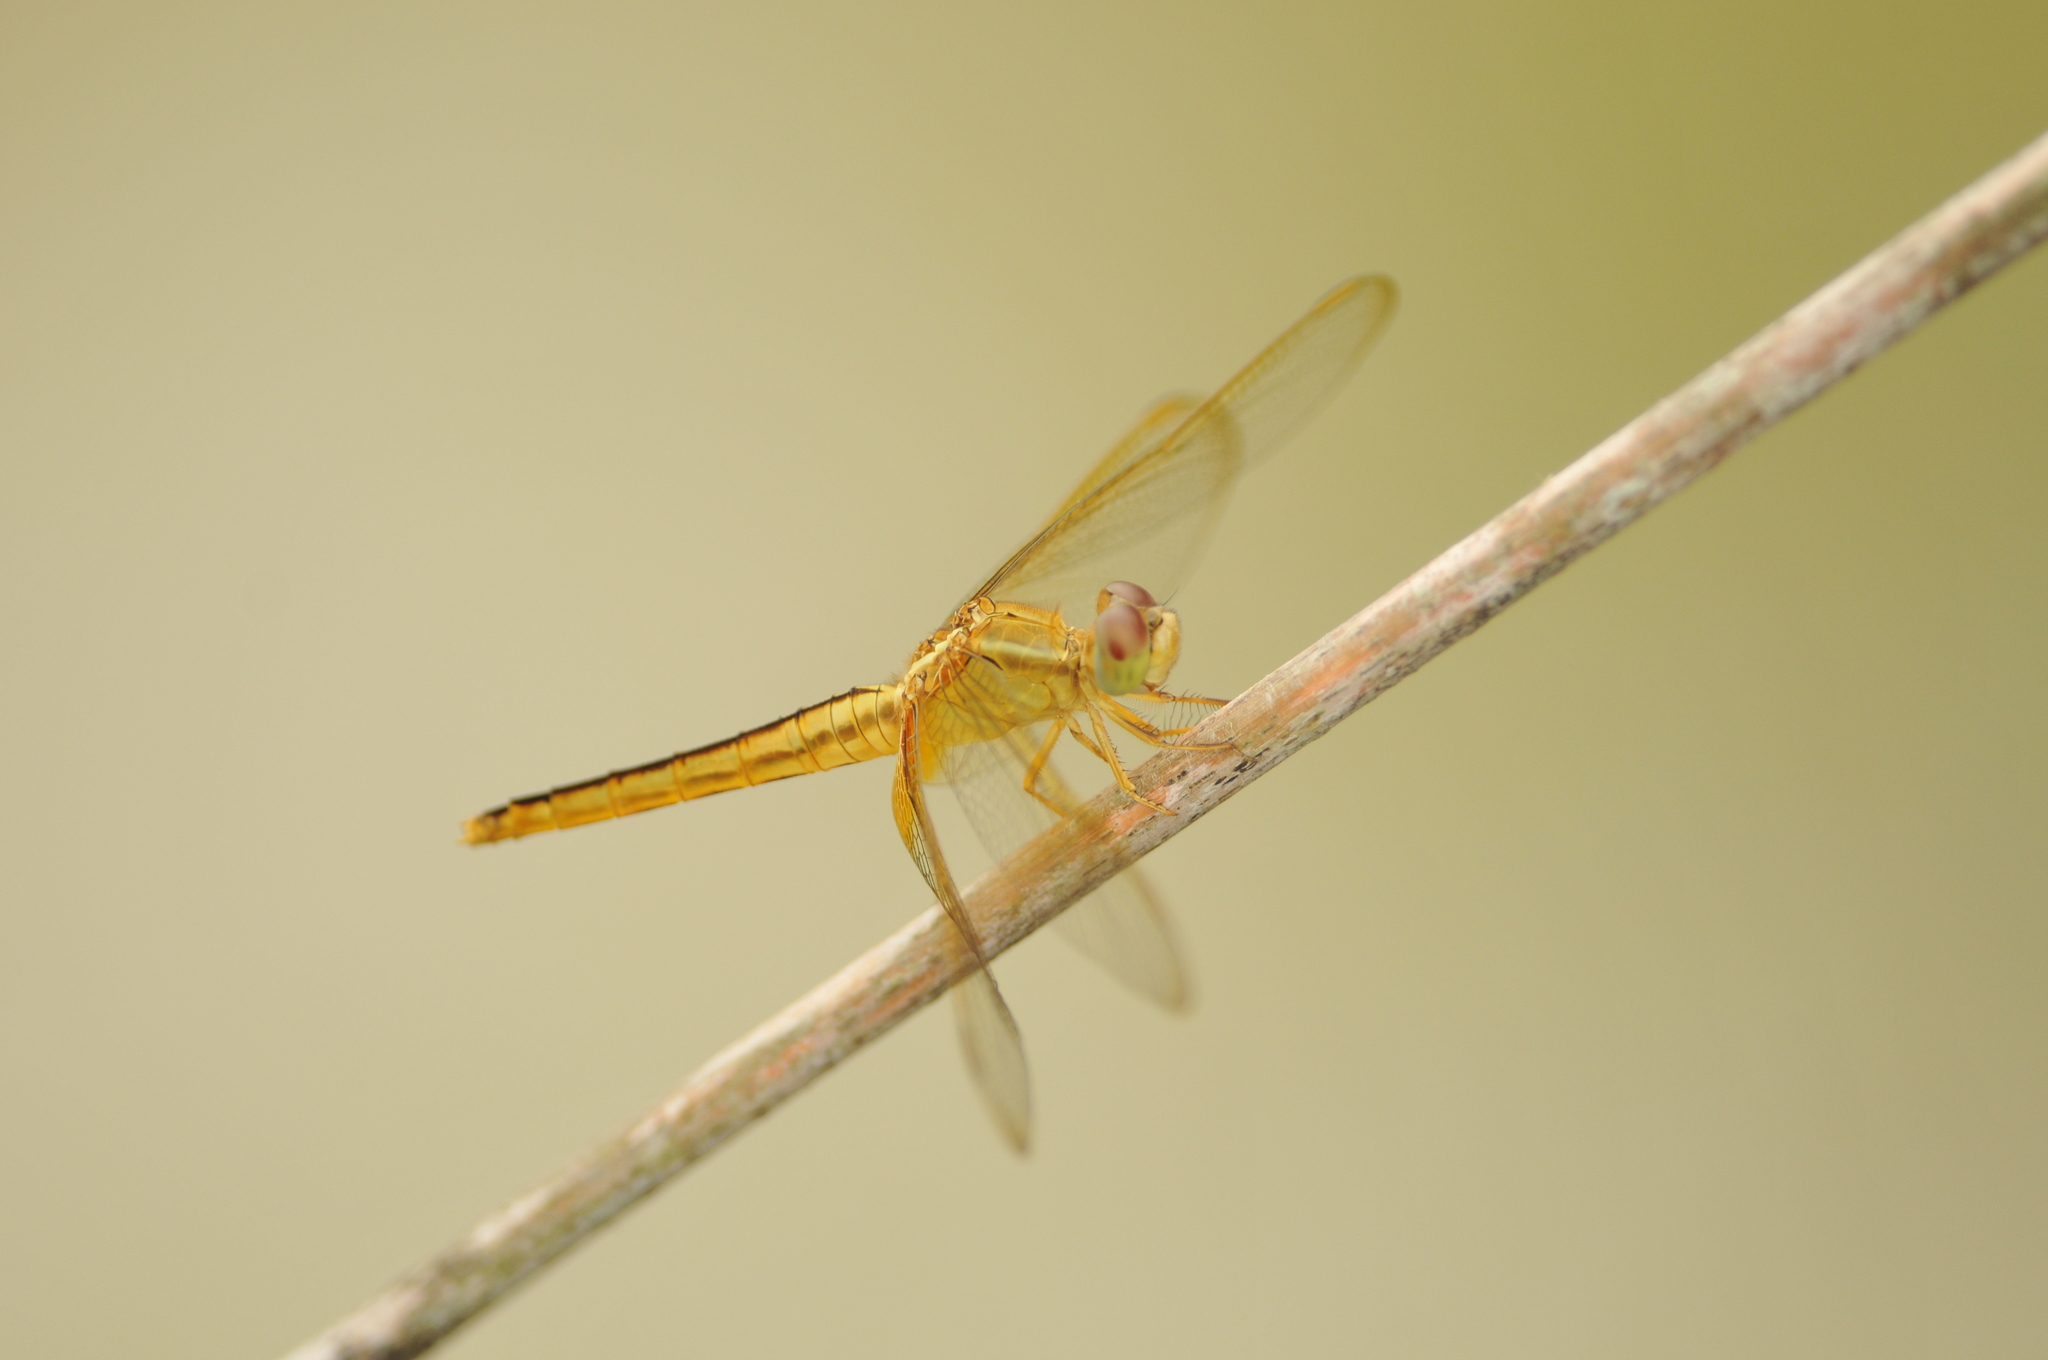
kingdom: Animalia
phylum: Arthropoda
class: Insecta
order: Odonata
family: Libellulidae
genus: Crocothemis
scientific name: Crocothemis servilia
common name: Scarlet skimmer
